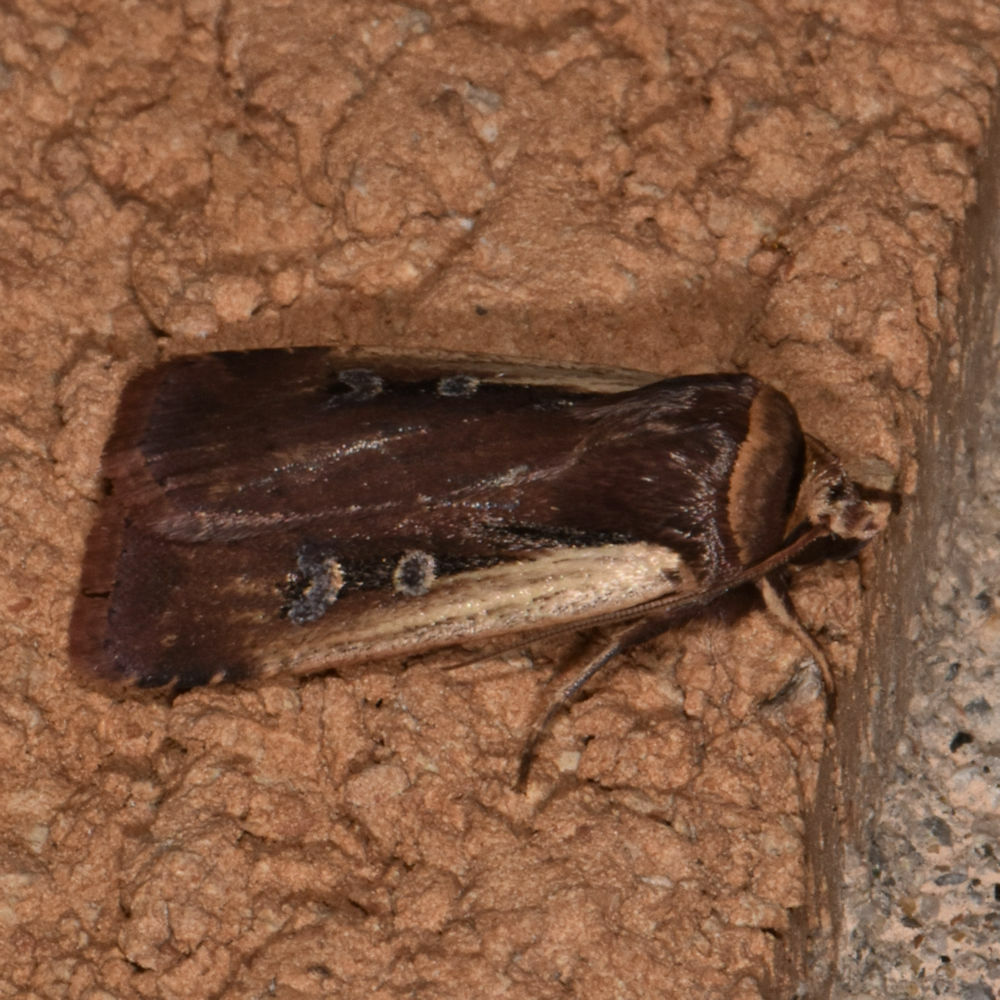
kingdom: Animalia
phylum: Arthropoda
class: Insecta
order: Lepidoptera
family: Noctuidae
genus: Ochropleura
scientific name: Ochropleura implecta
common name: Flame-shouldered dart
